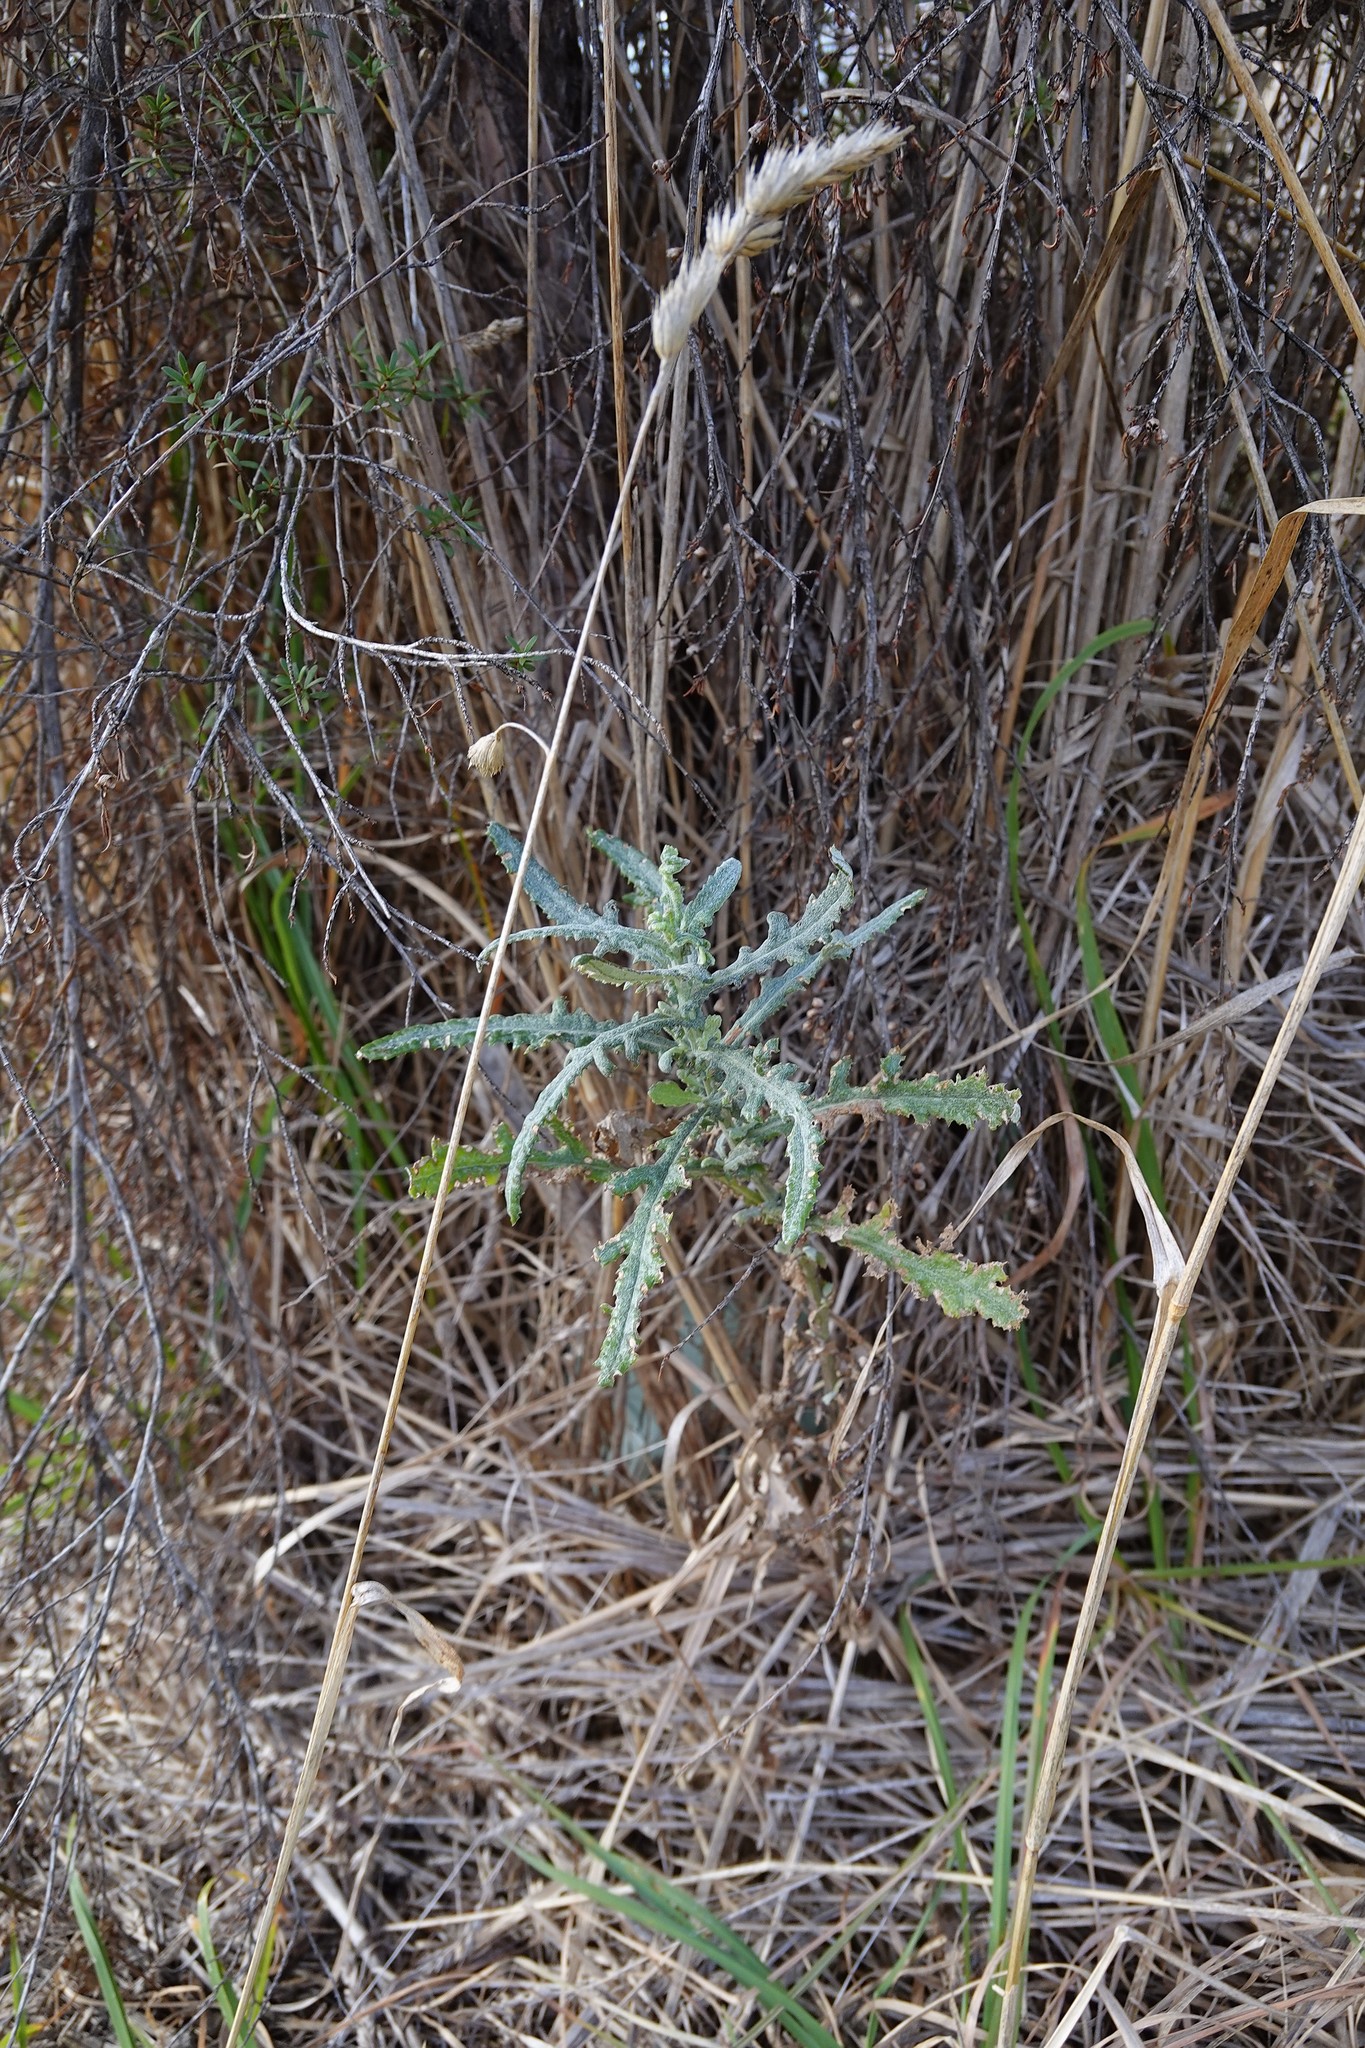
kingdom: Plantae
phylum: Tracheophyta
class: Magnoliopsida
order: Asterales
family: Asteraceae
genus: Senecio
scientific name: Senecio glomeratus
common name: Cutleaf burnweed
